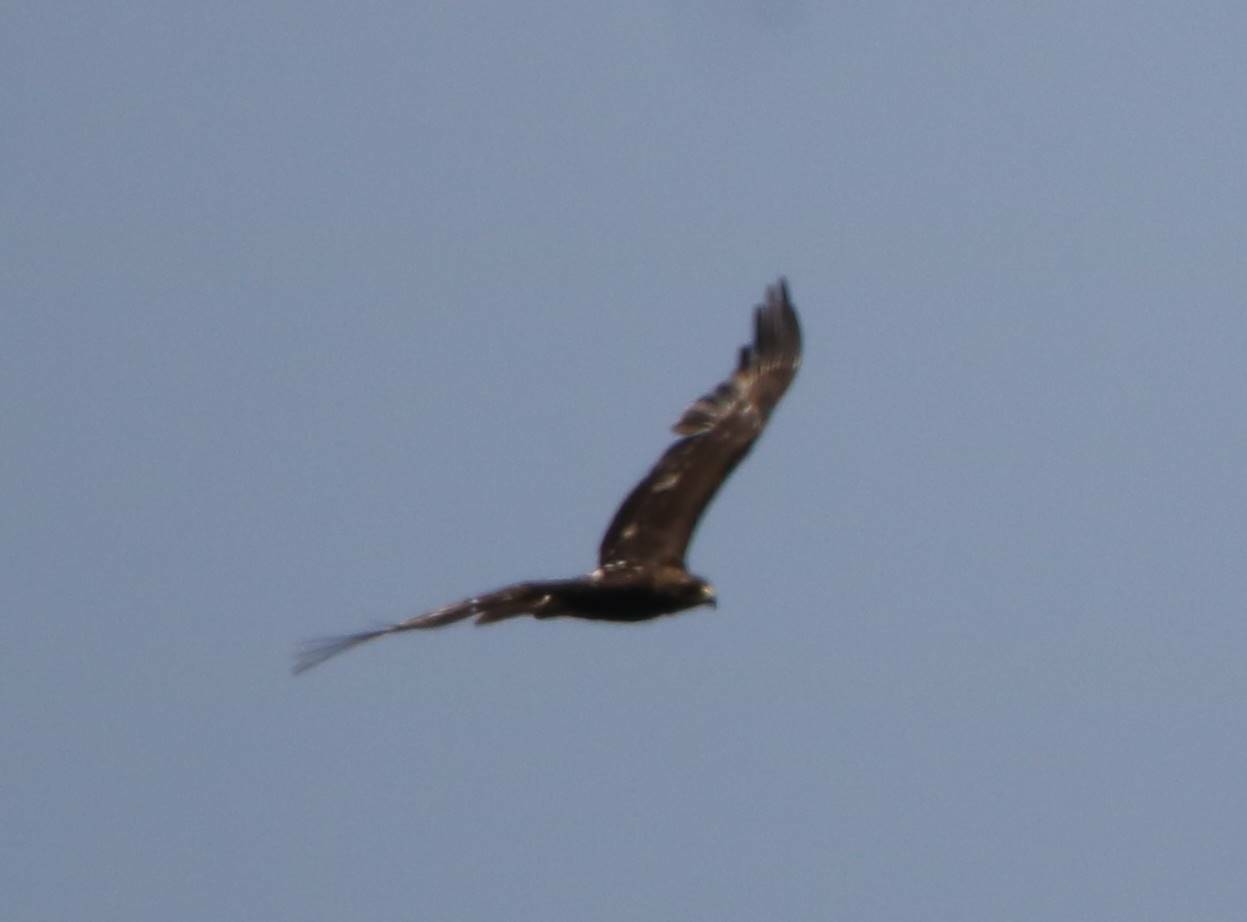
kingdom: Animalia
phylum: Chordata
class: Aves
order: Accipitriformes
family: Accipitridae
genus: Aquila
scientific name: Aquila clanga
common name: Greater spotted eagle
